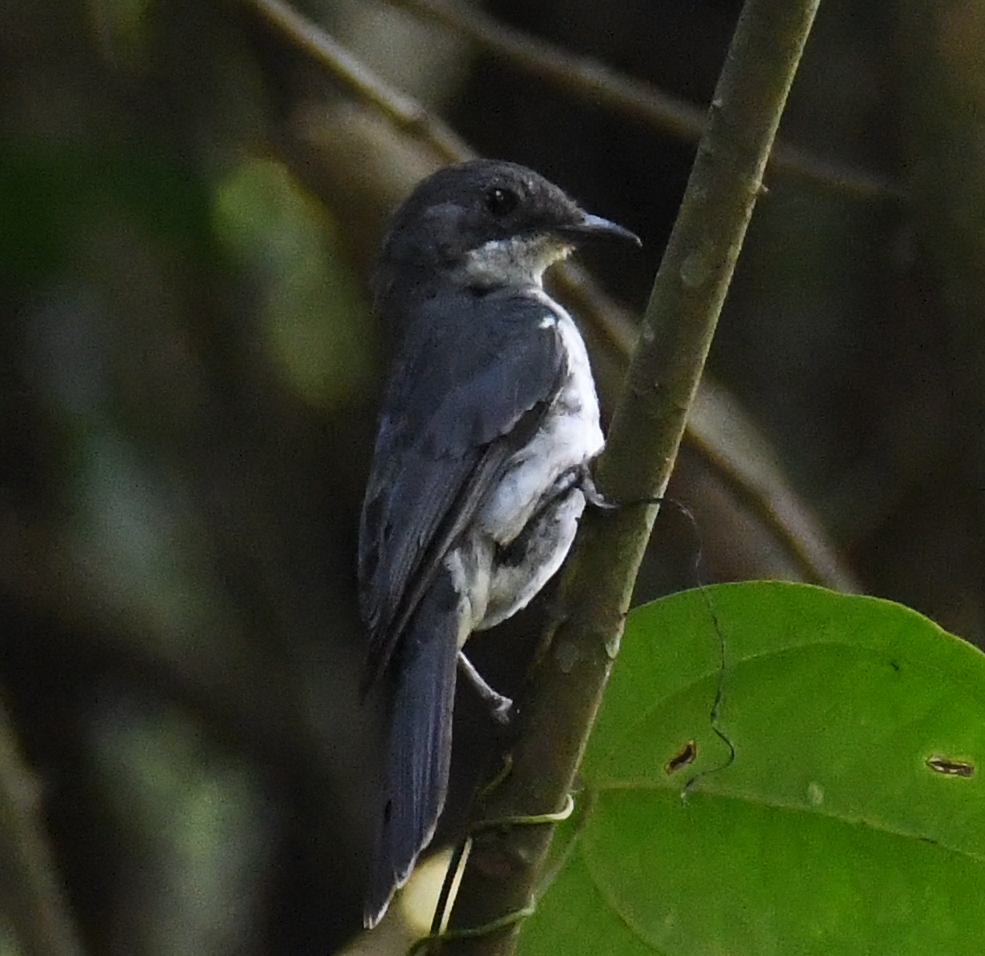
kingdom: Animalia
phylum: Chordata
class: Aves
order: Passeriformes
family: Muscicapidae
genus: Fraseria
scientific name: Fraseria ocreata
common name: Fraser's forest flycatcher
